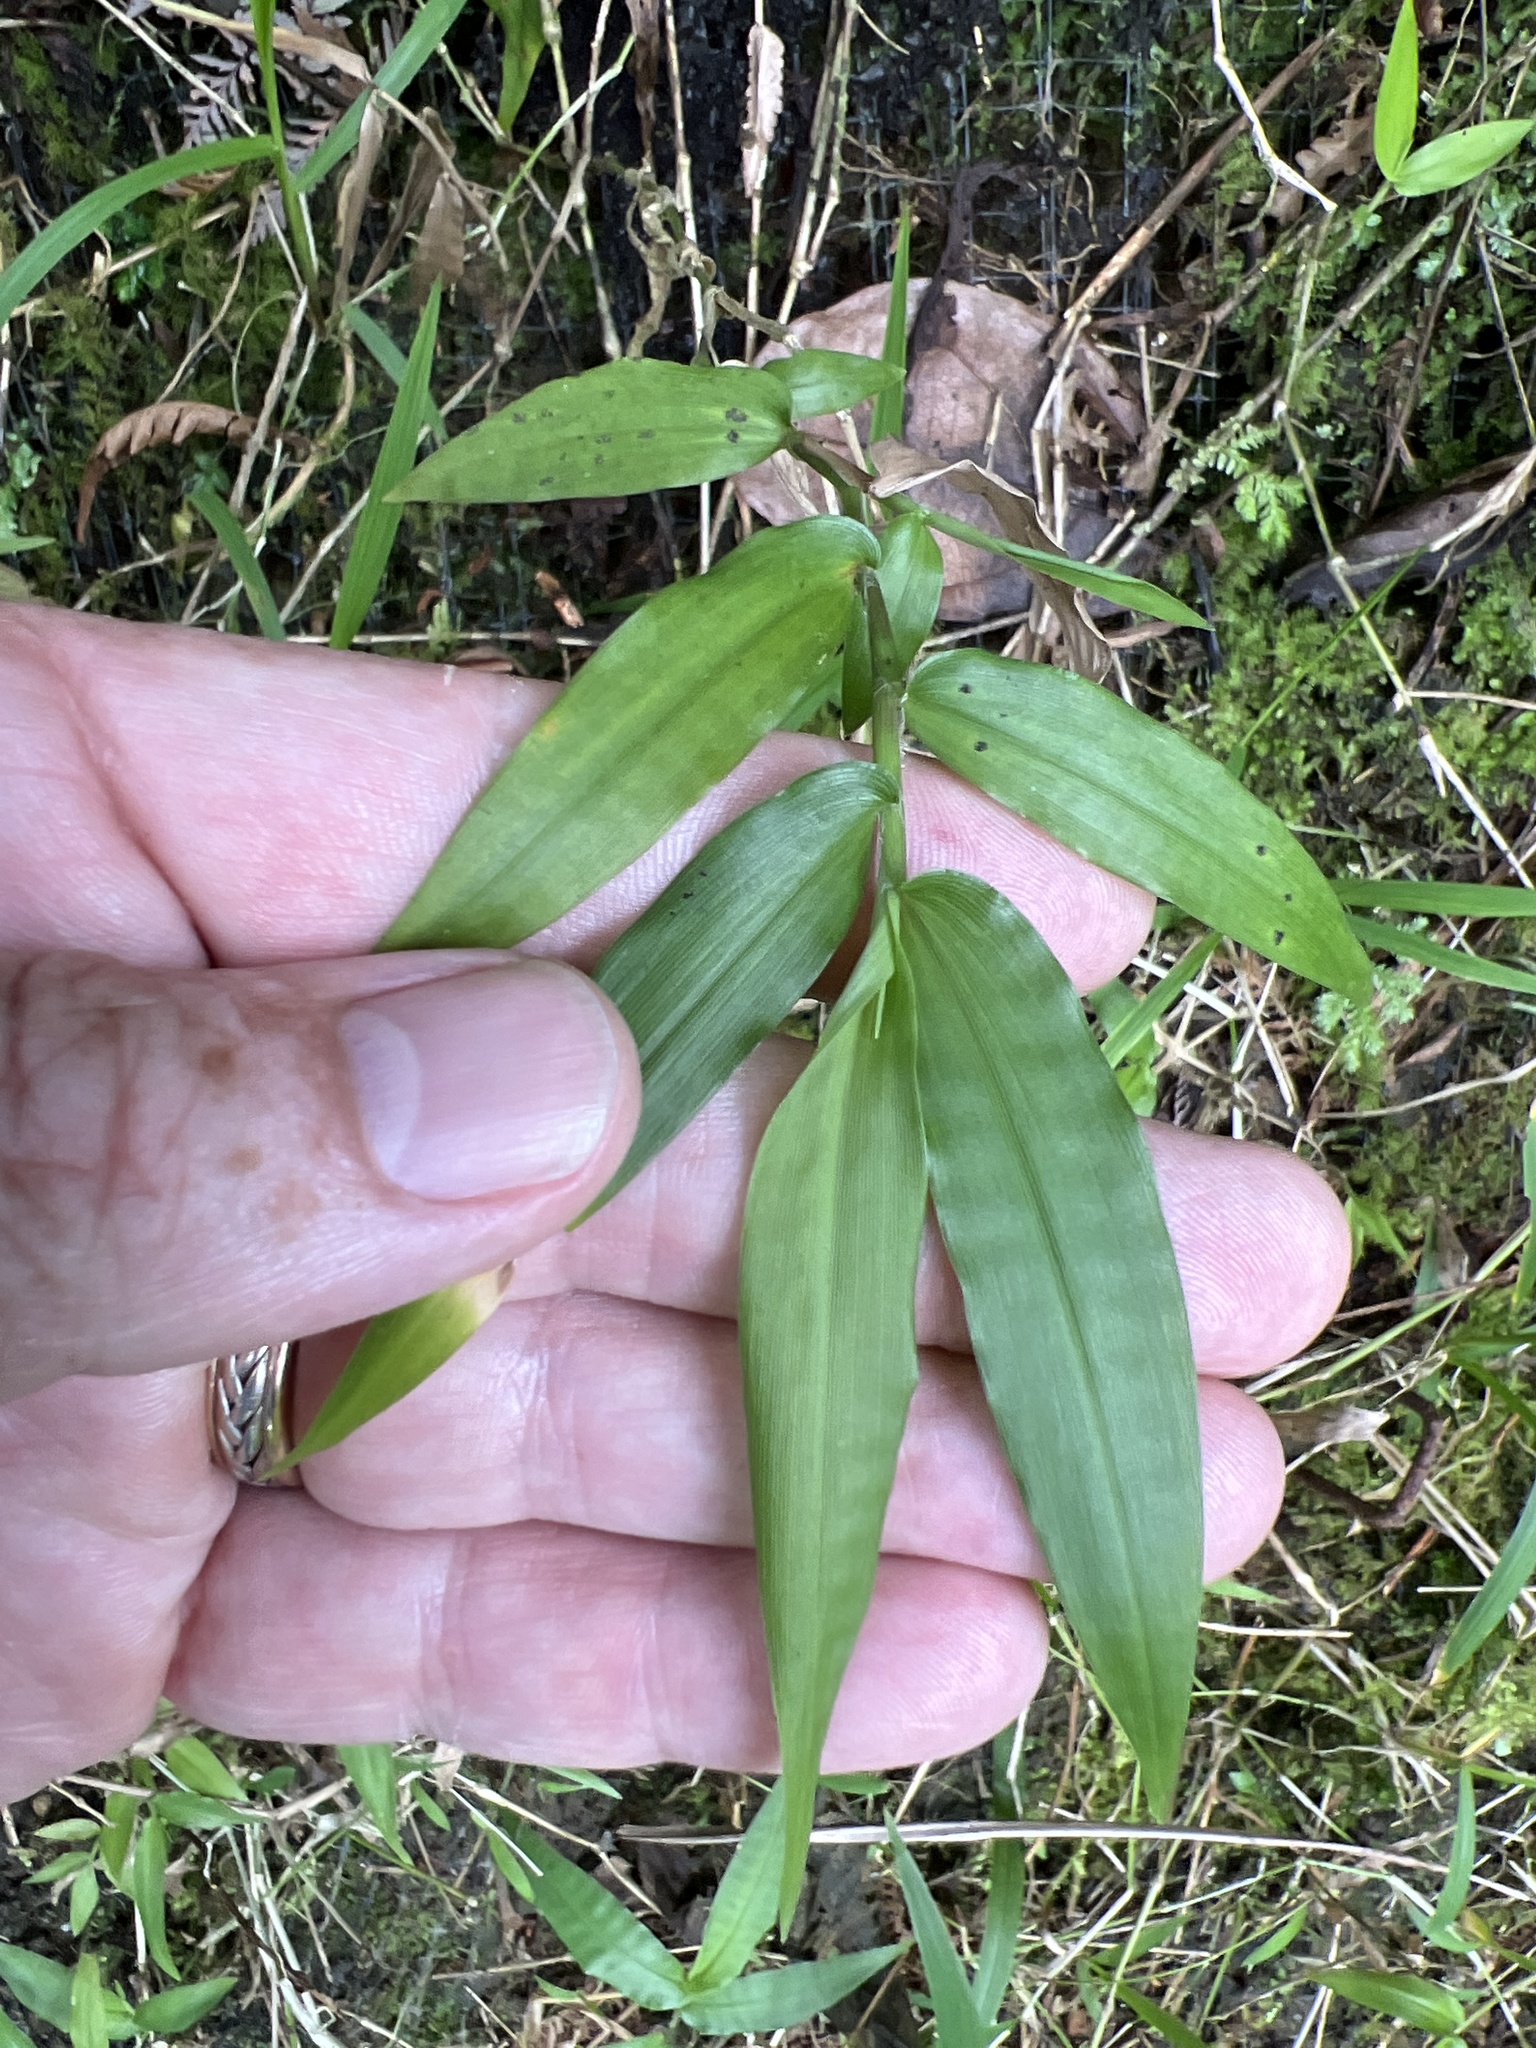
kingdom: Plantae
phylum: Tracheophyta
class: Liliopsida
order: Poales
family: Poaceae
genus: Ichnanthus
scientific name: Ichnanthus pallens
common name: Water grass
